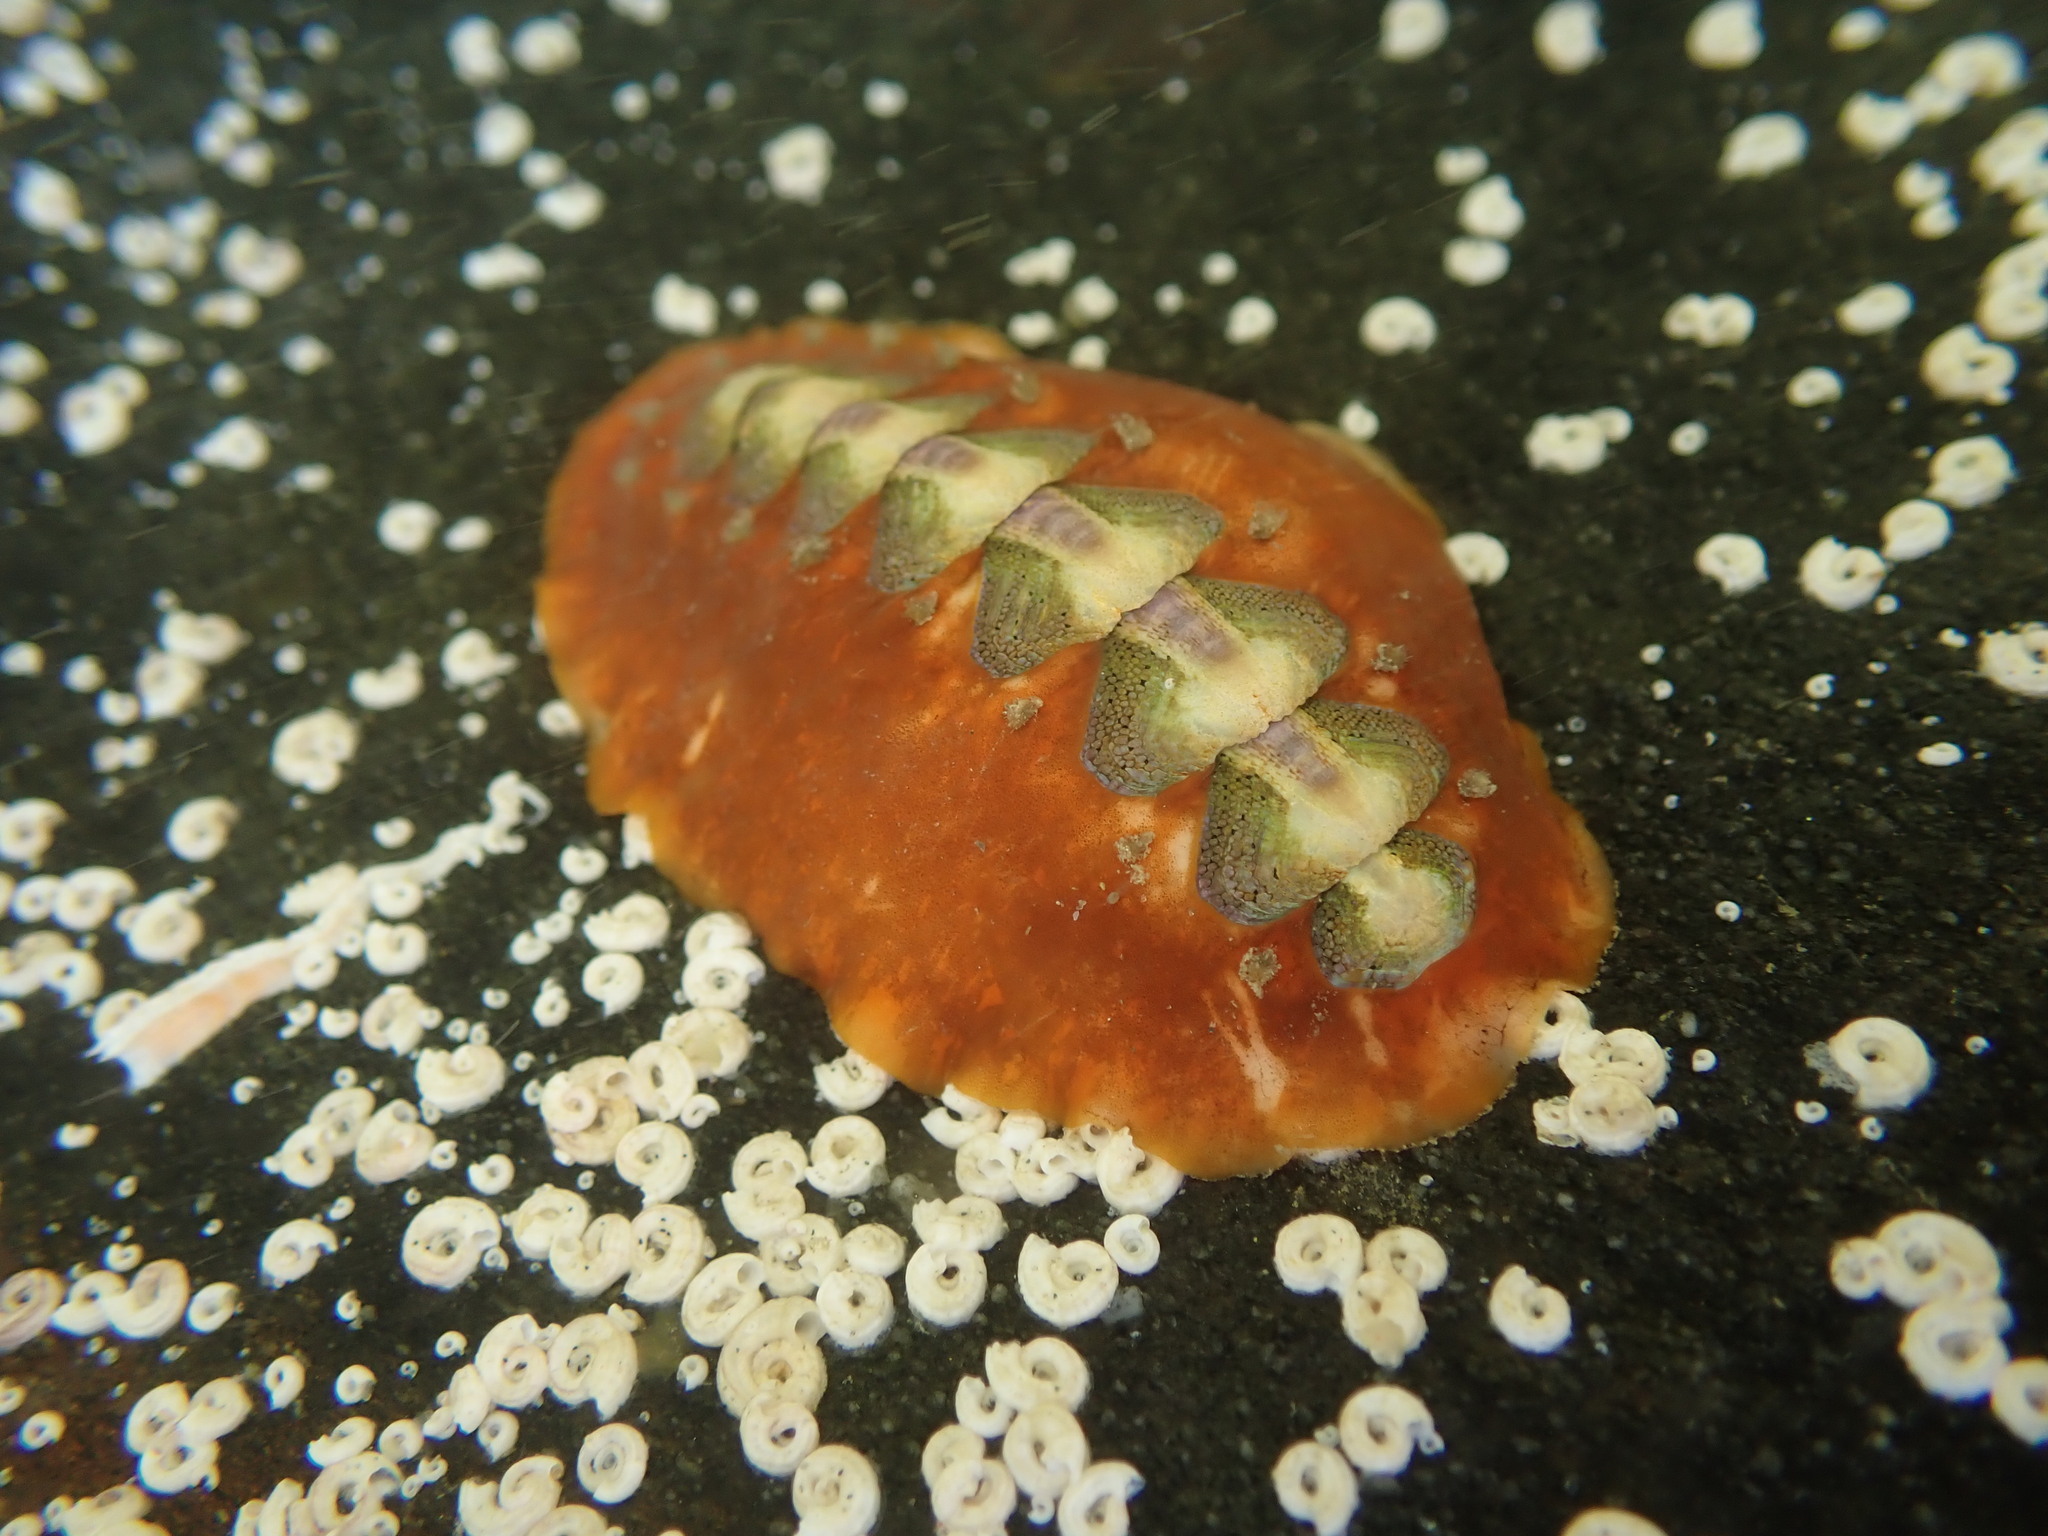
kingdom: Animalia
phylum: Mollusca
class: Polyplacophora
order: Chitonida
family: Acanthochitonidae
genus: Notoplax
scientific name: Notoplax violacea
